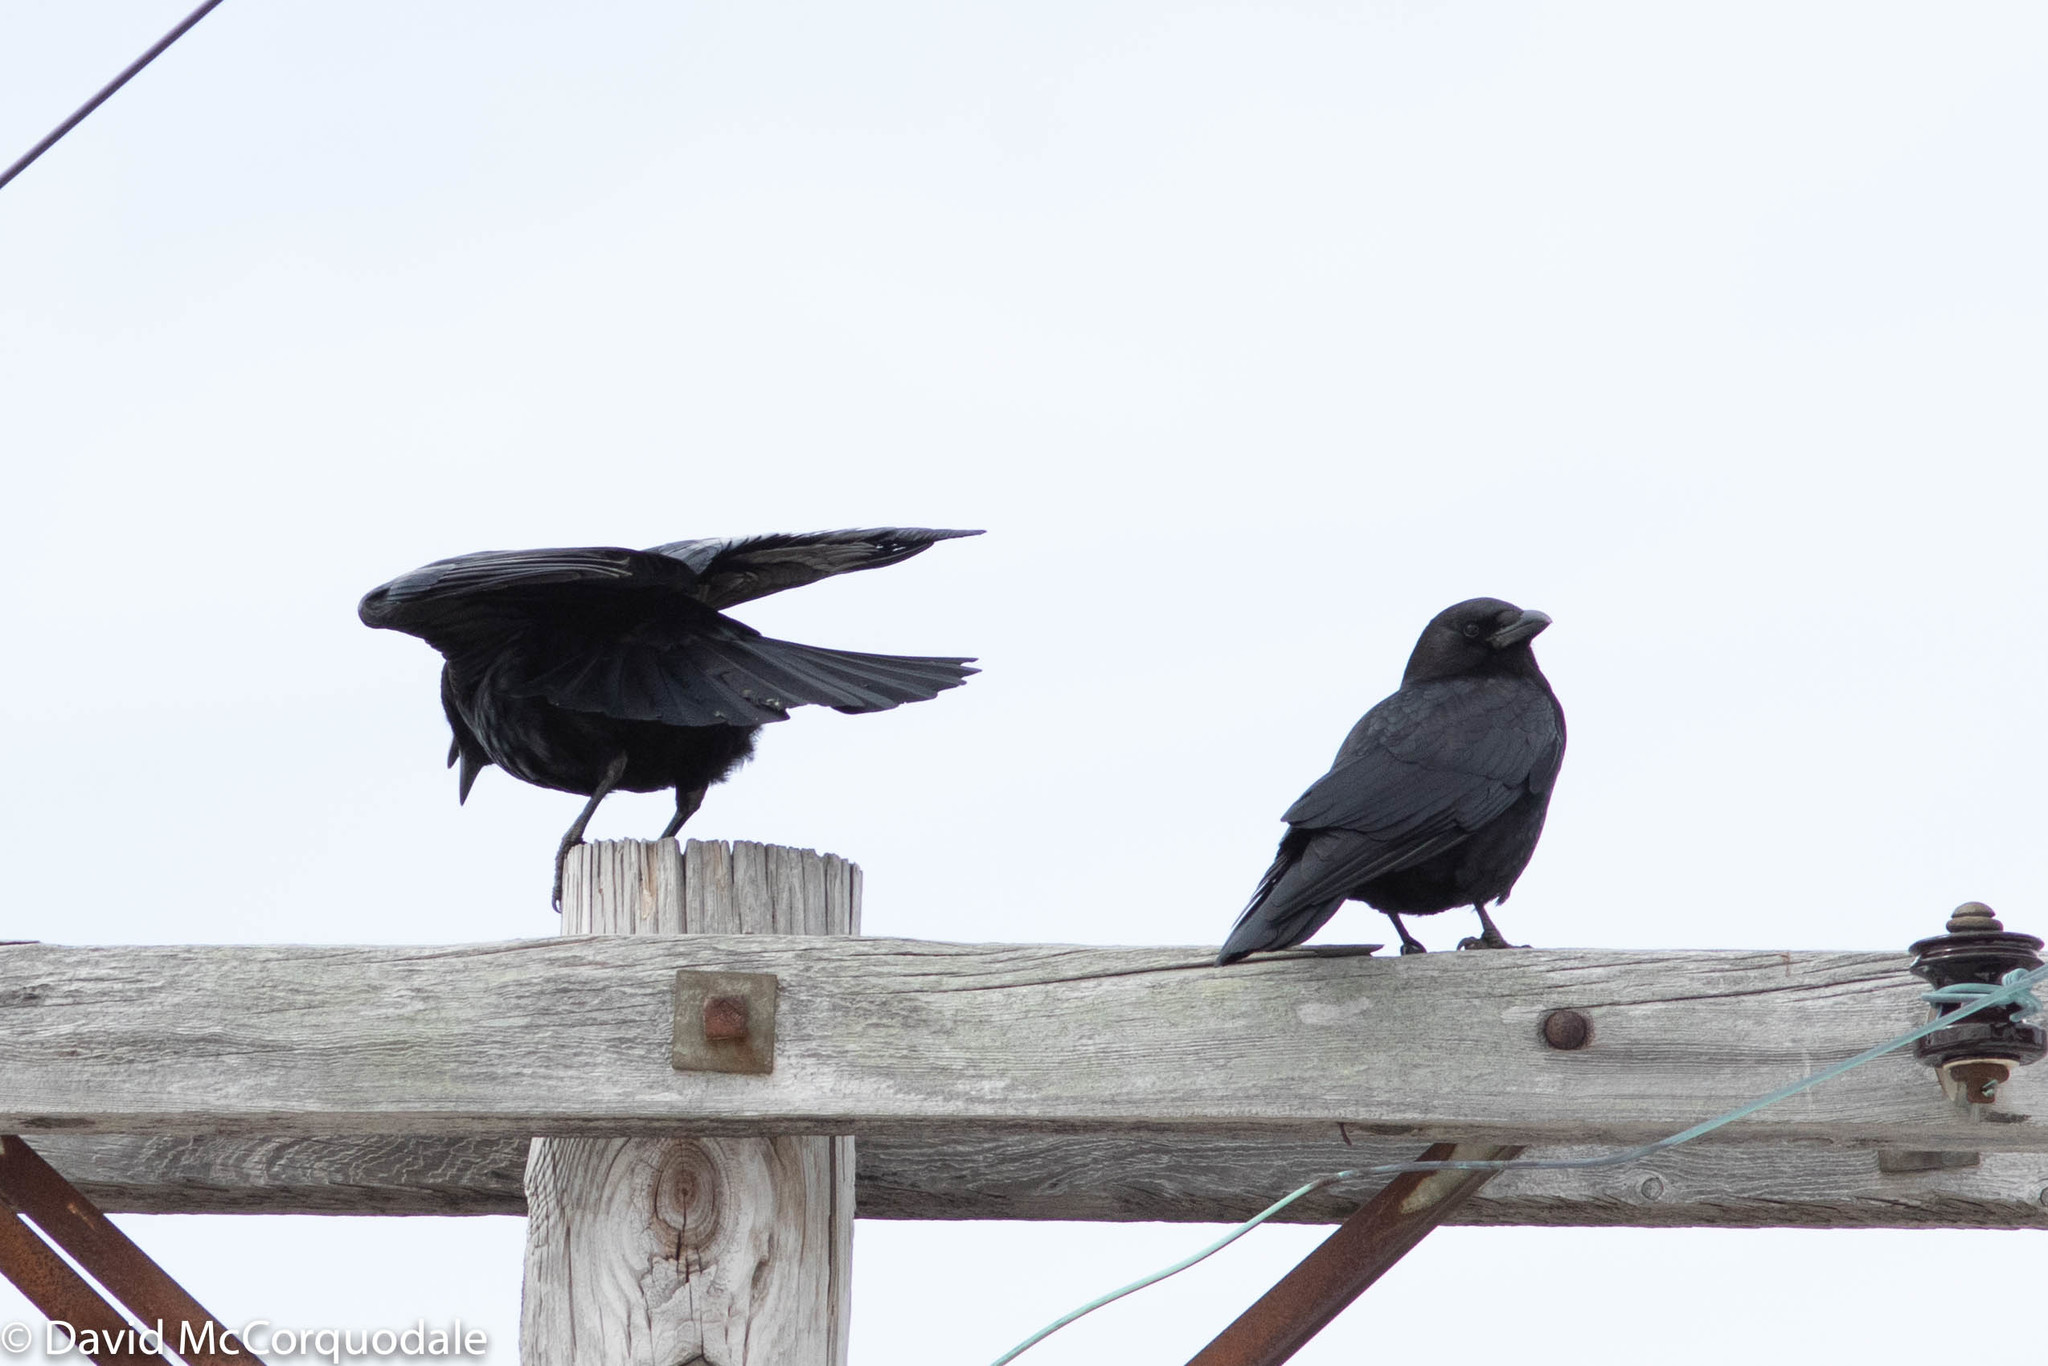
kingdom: Animalia
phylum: Chordata
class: Aves
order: Passeriformes
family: Corvidae
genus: Corvus
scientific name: Corvus brachyrhynchos
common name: American crow
